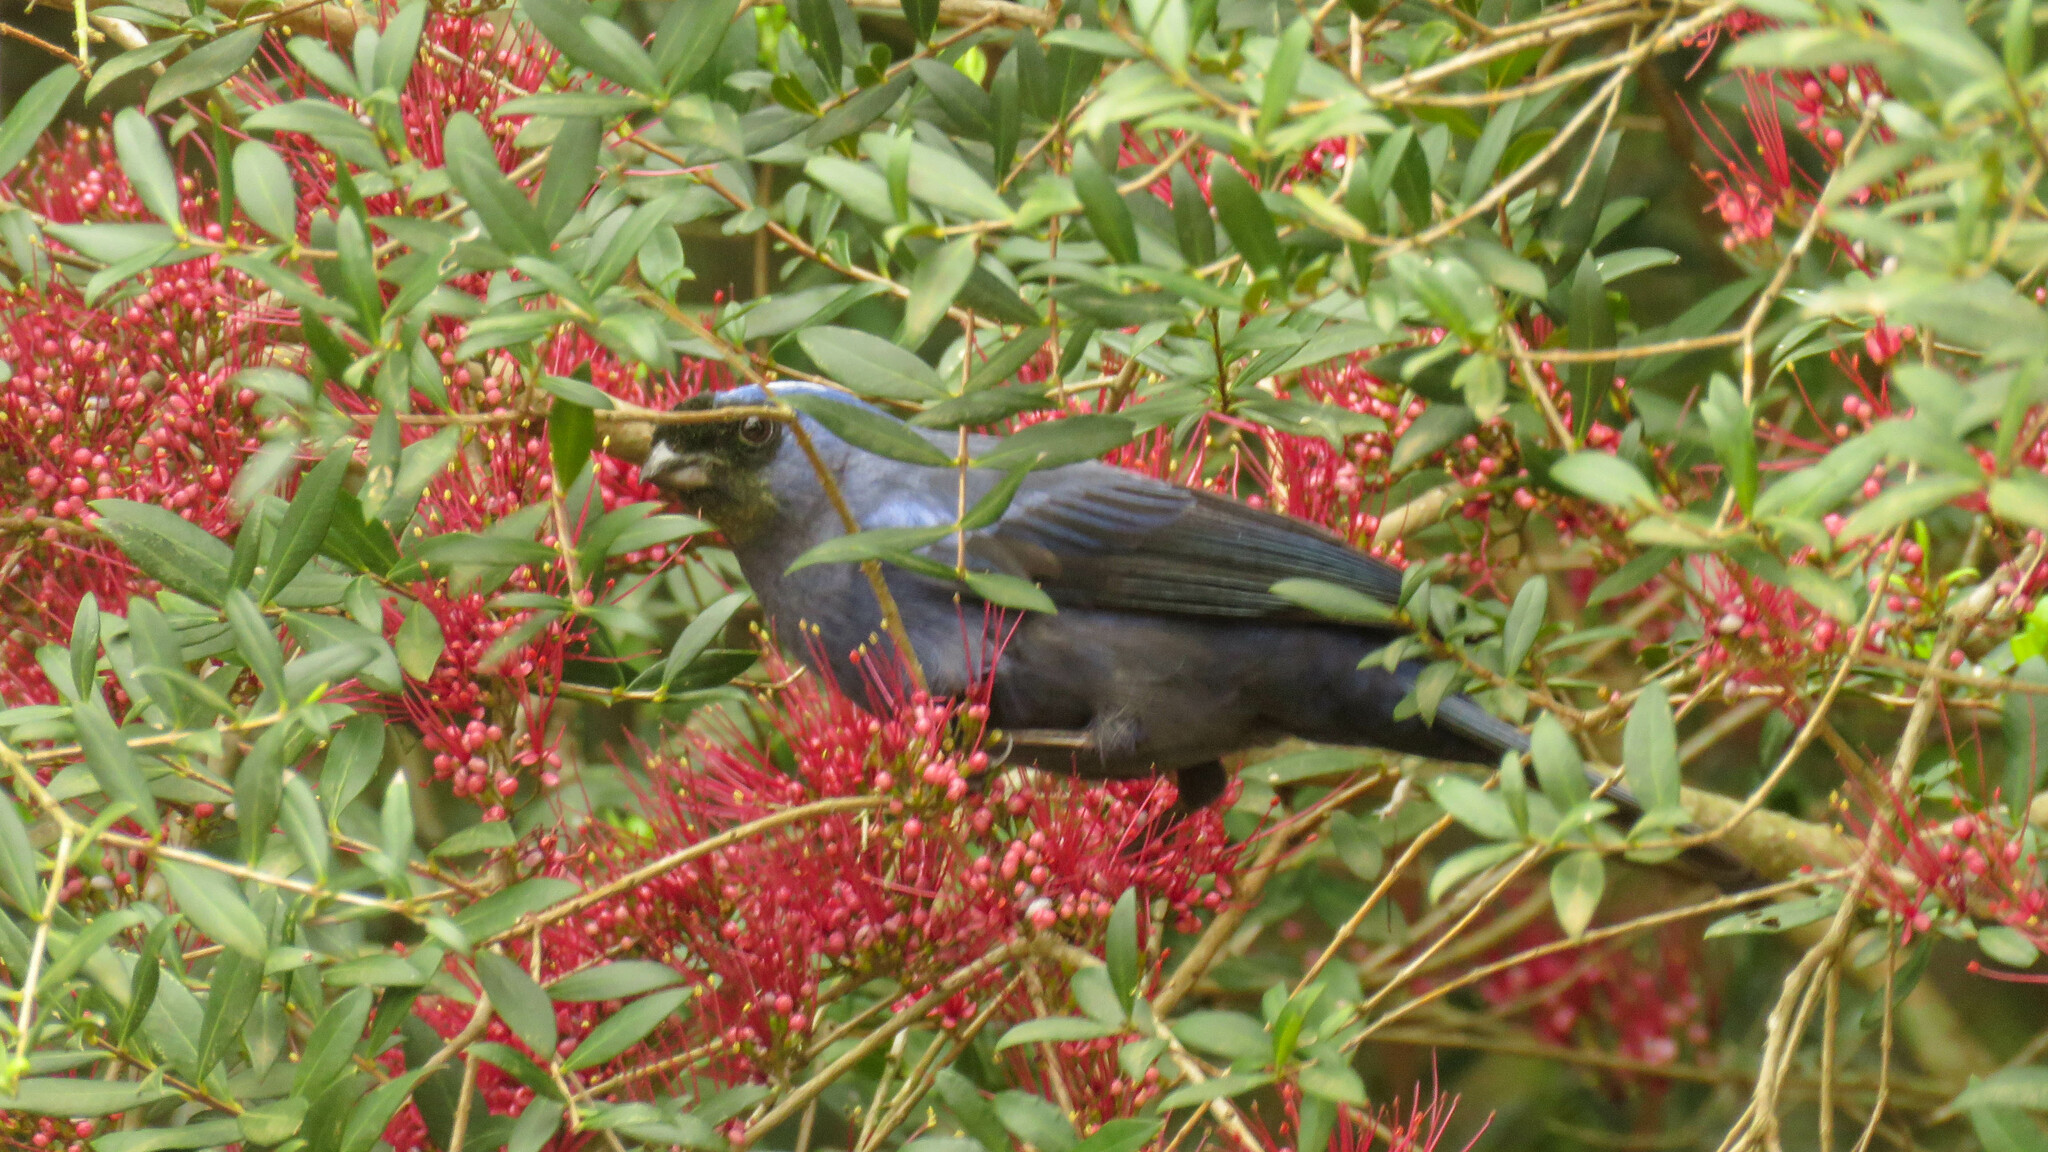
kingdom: Animalia
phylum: Chordata
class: Aves
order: Passeriformes
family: Thraupidae
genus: Stephanophorus
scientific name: Stephanophorus diadematus
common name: Diademed tanager
